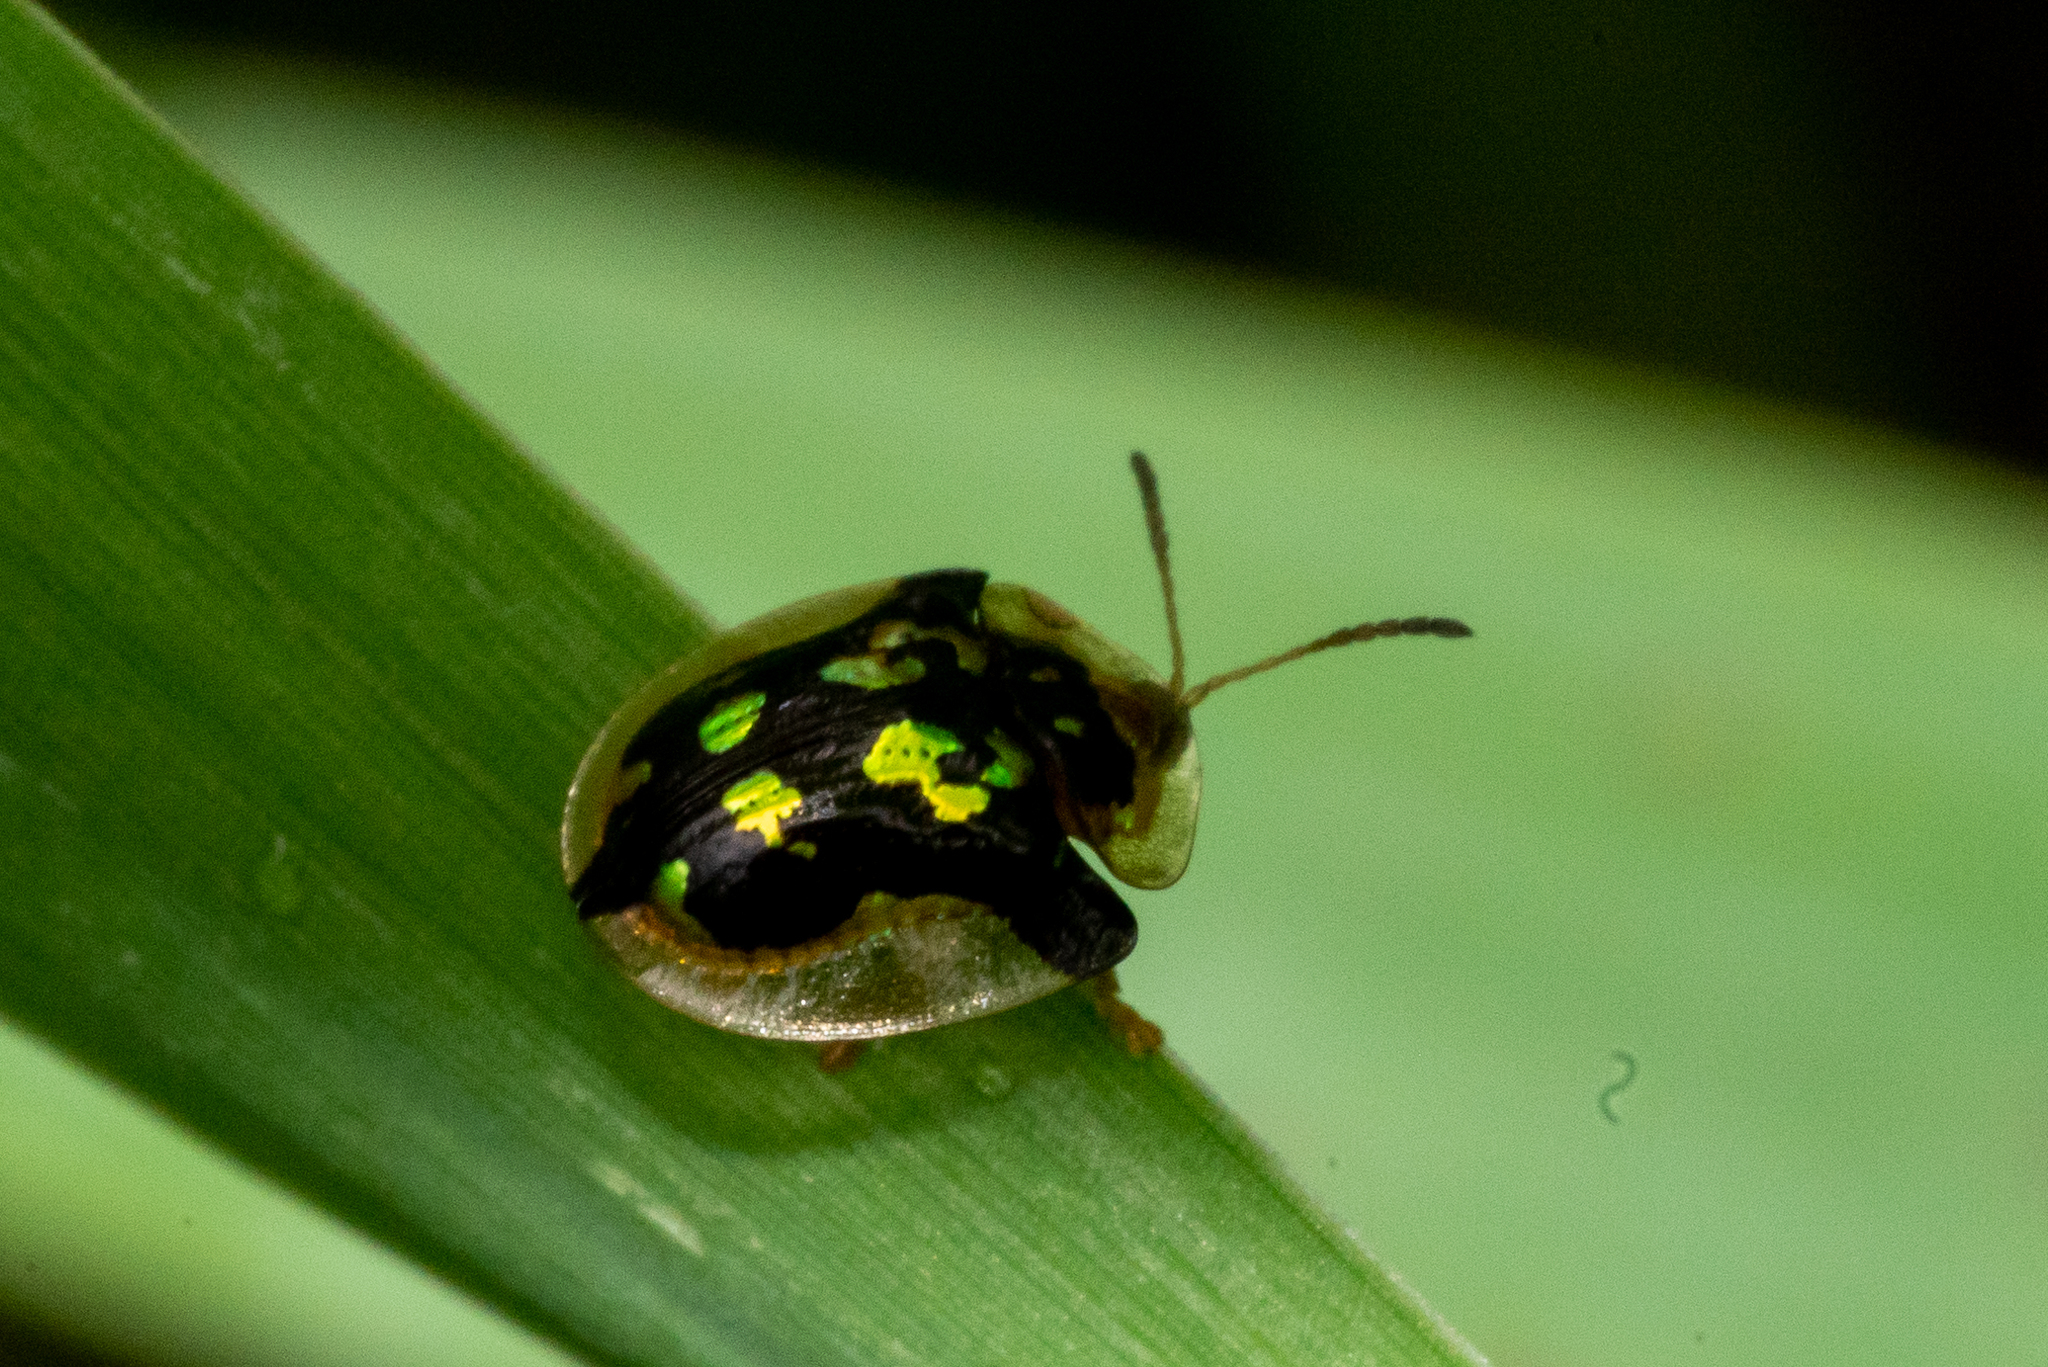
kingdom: Animalia
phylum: Arthropoda
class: Insecta
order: Coleoptera
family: Chrysomelidae
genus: Deloyala
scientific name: Deloyala guttata
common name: Mottled tortoise beetle
